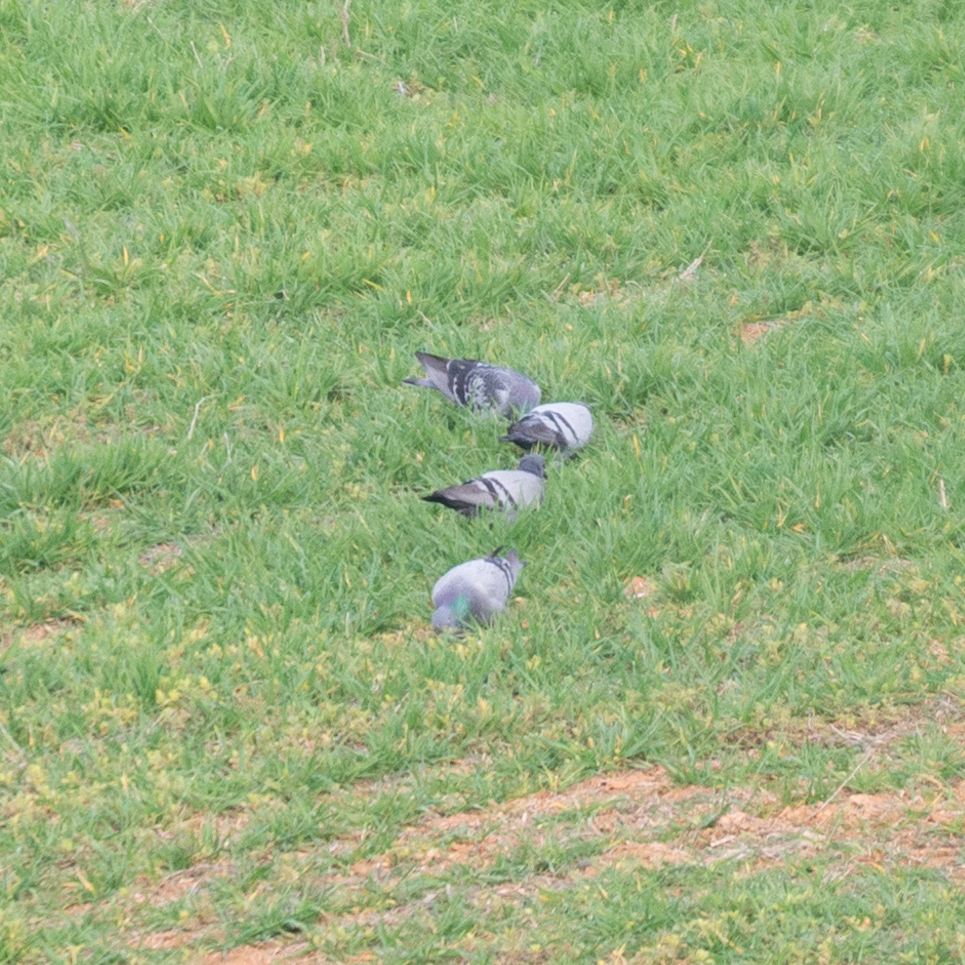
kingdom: Animalia
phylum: Chordata
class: Aves
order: Columbiformes
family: Columbidae
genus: Columba
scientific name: Columba livia
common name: Rock pigeon
